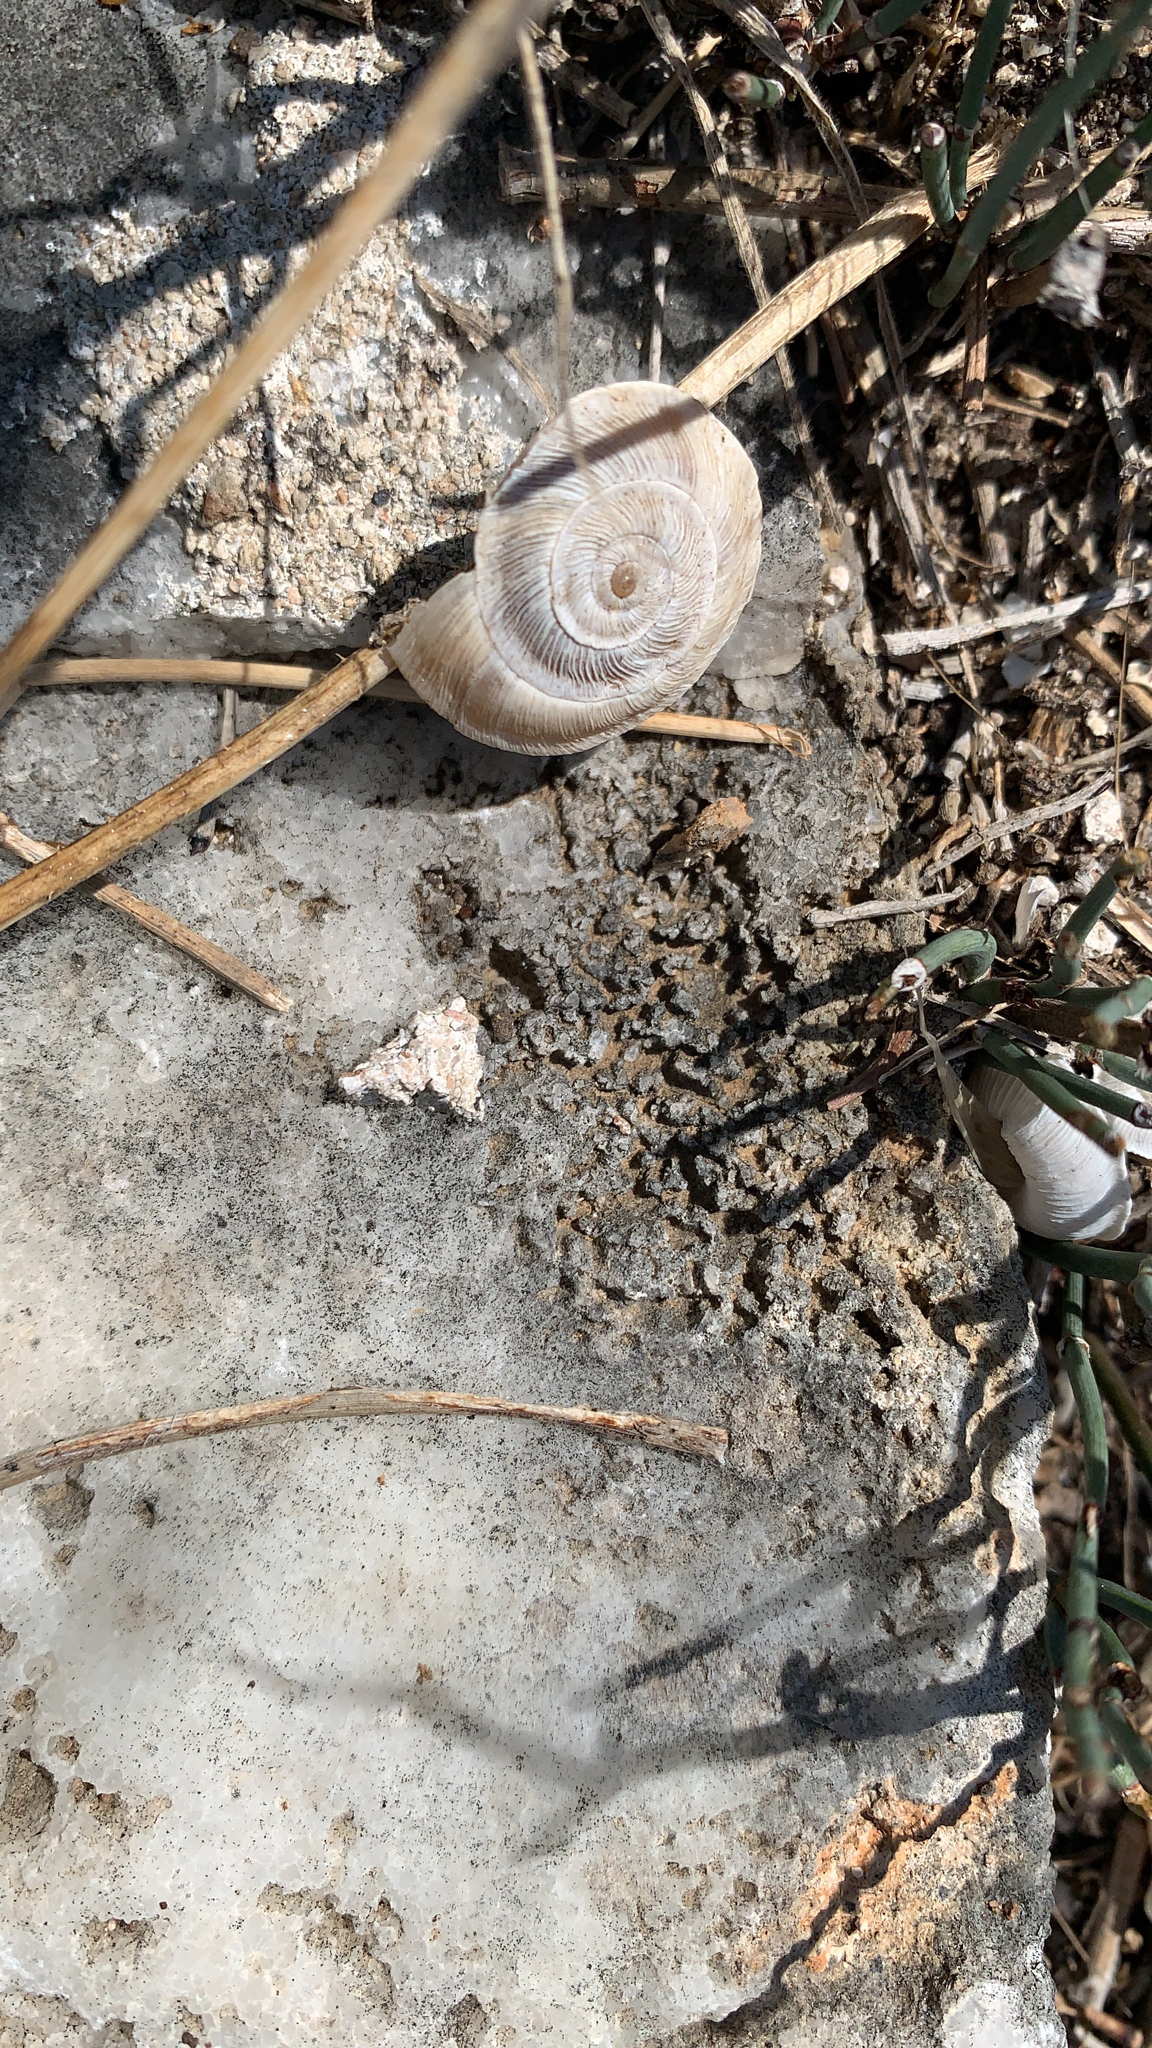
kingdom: Animalia
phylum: Mollusca
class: Gastropoda
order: Stylommatophora
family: Geomitridae
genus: Xerolenta
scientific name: Xerolenta obvia
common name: White heath snail
